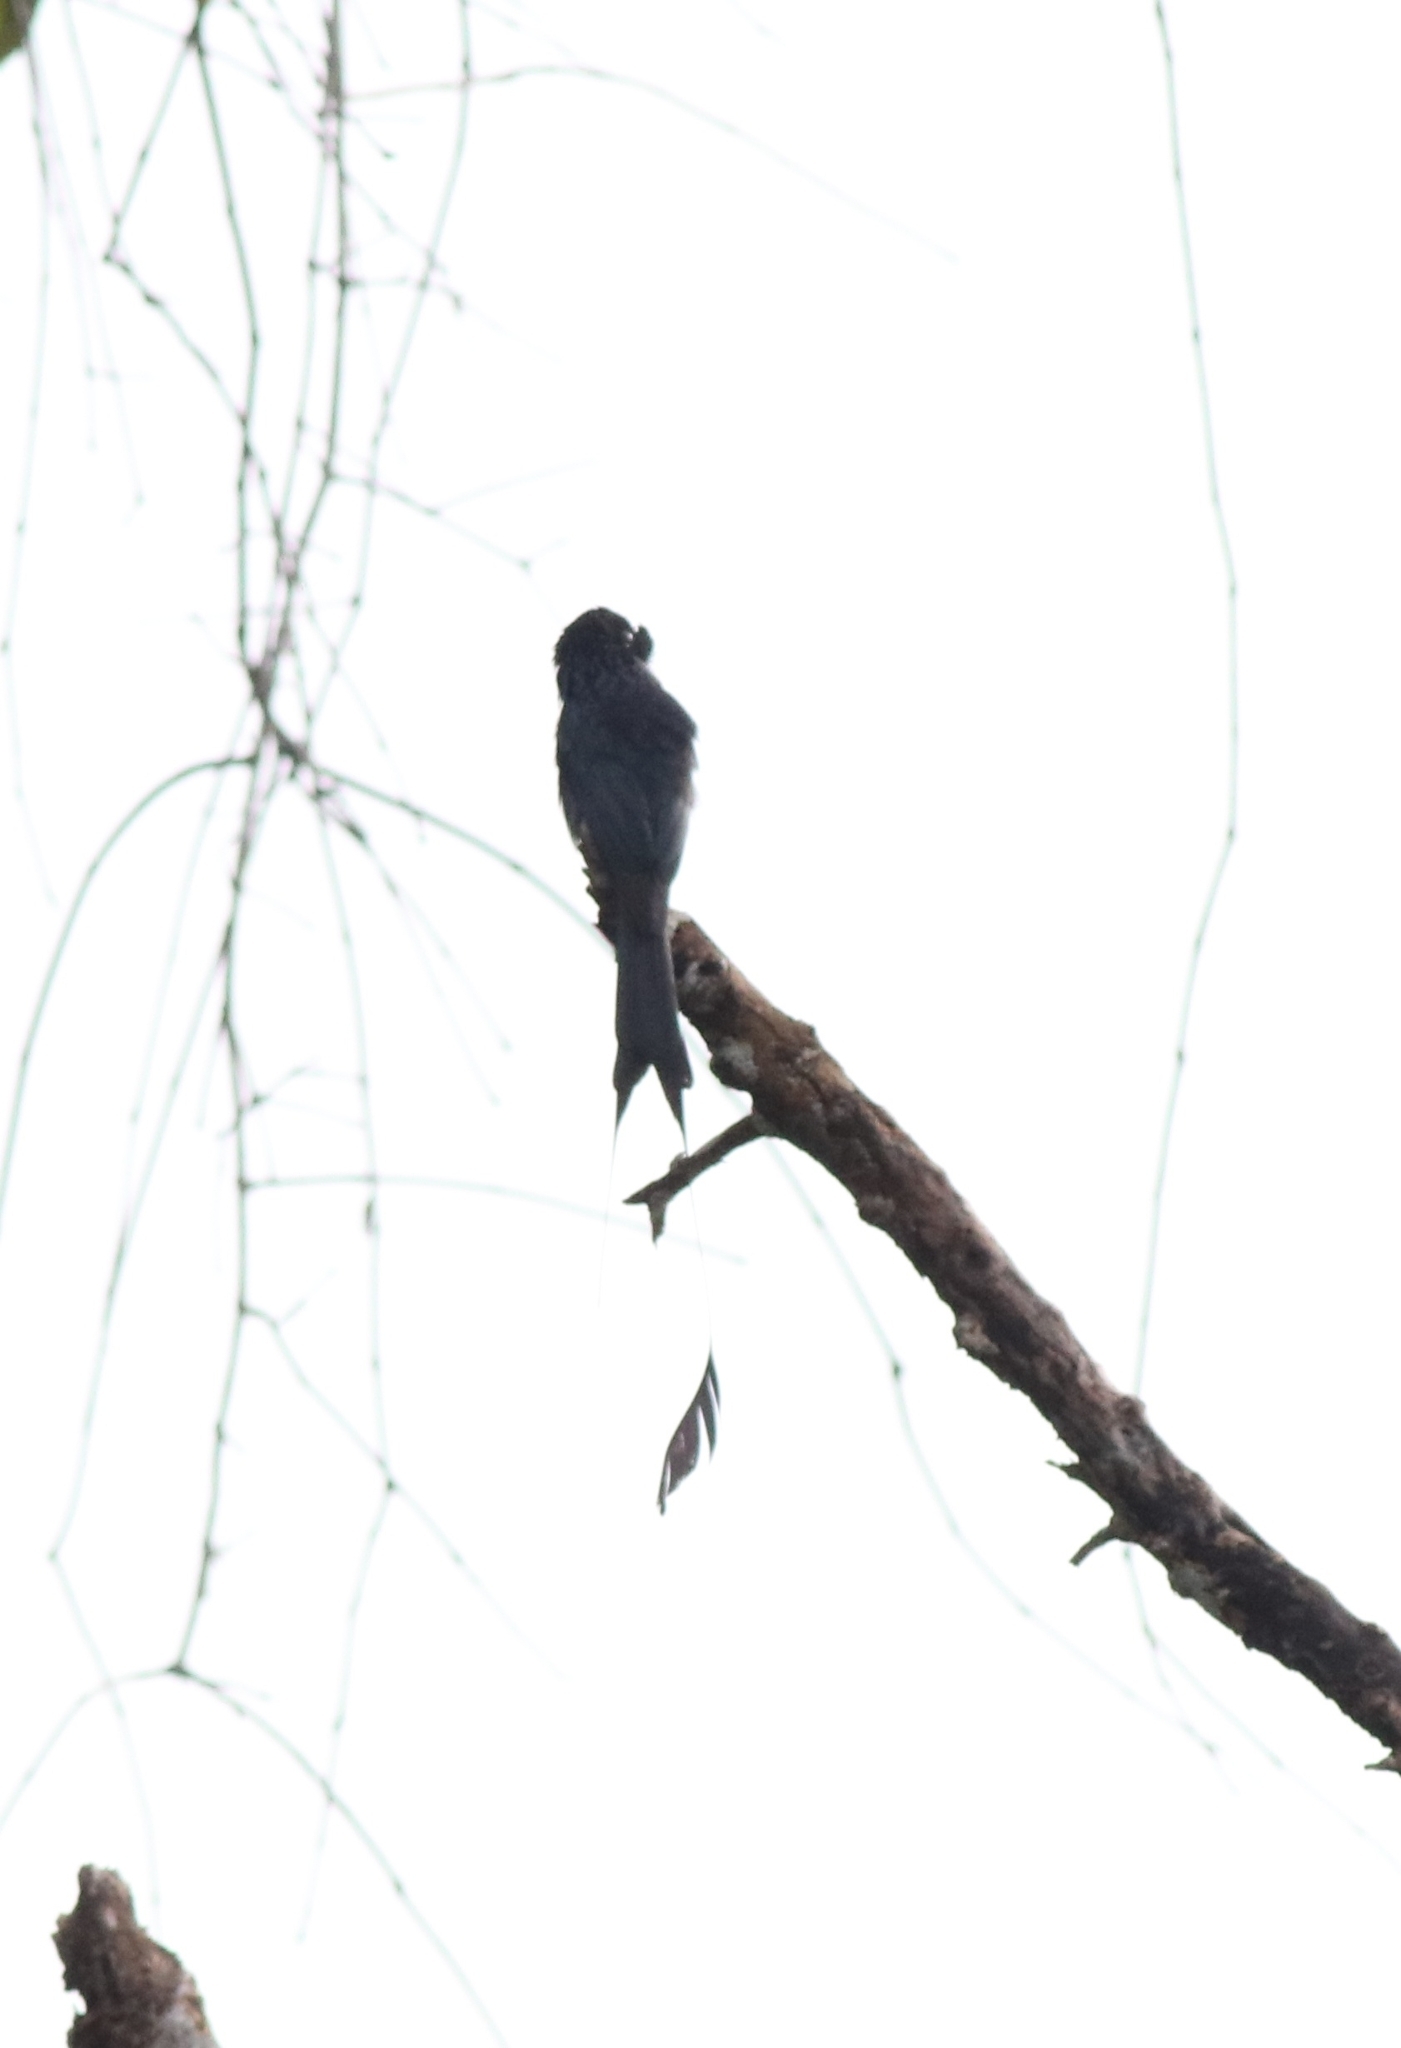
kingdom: Animalia
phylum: Chordata
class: Aves
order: Passeriformes
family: Dicruridae
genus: Dicrurus
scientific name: Dicrurus paradiseus
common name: Greater racket-tailed drongo
